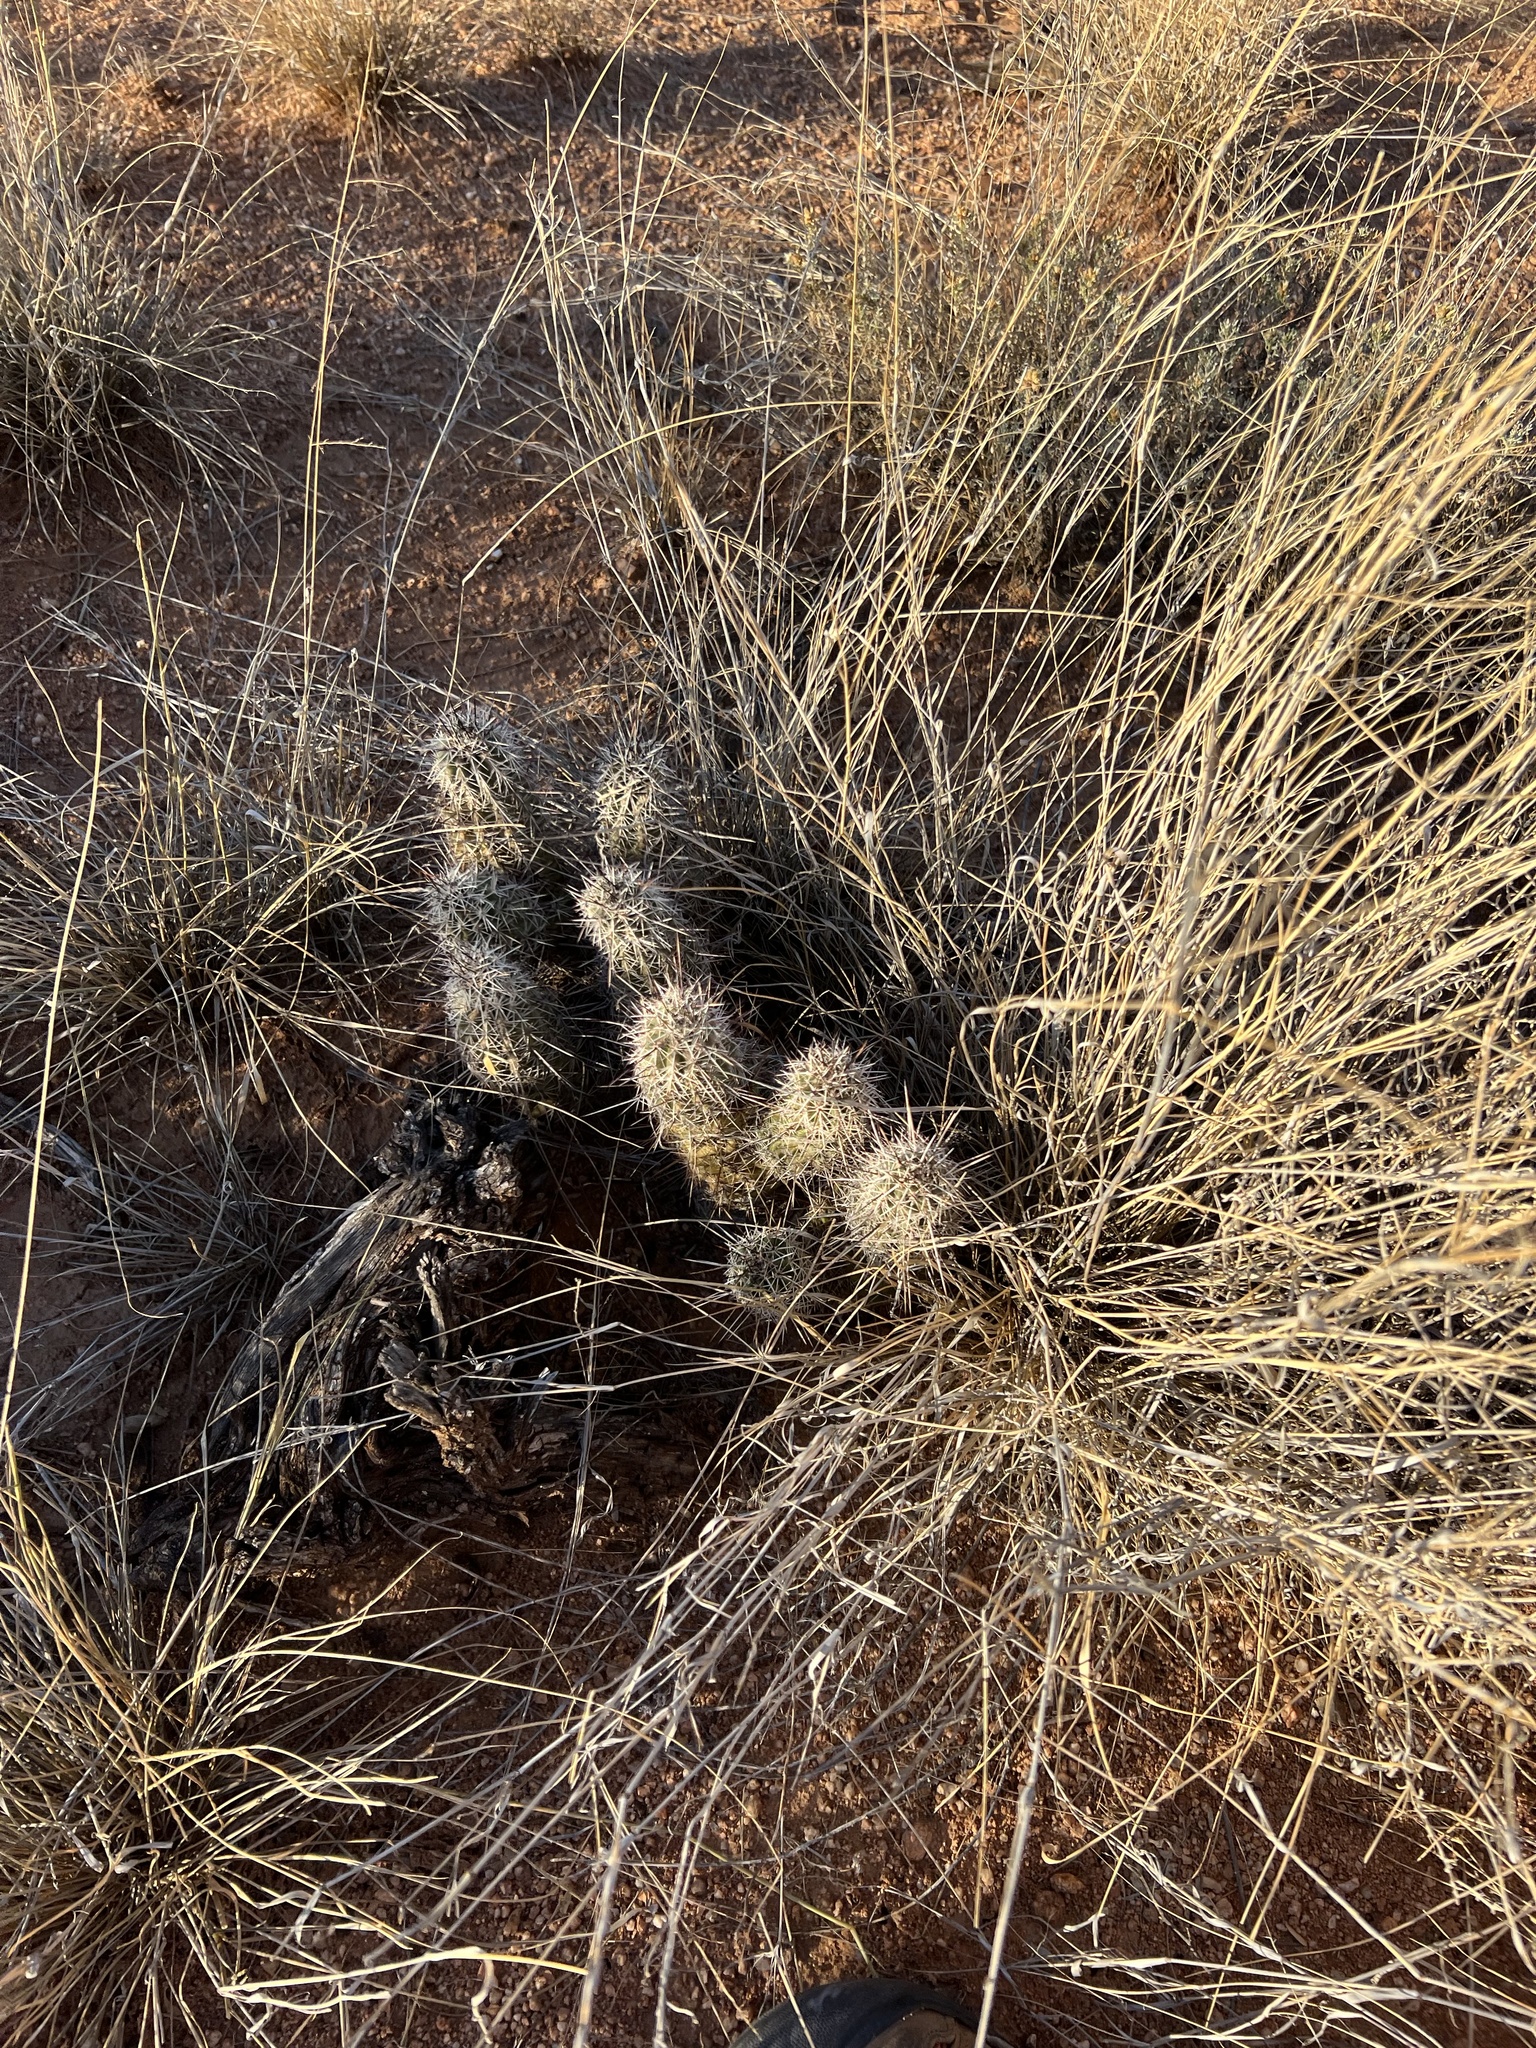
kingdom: Plantae
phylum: Tracheophyta
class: Magnoliopsida
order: Caryophyllales
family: Cactaceae
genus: Echinocereus
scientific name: Echinocereus fasciculatus
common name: Bundle hedgehog
